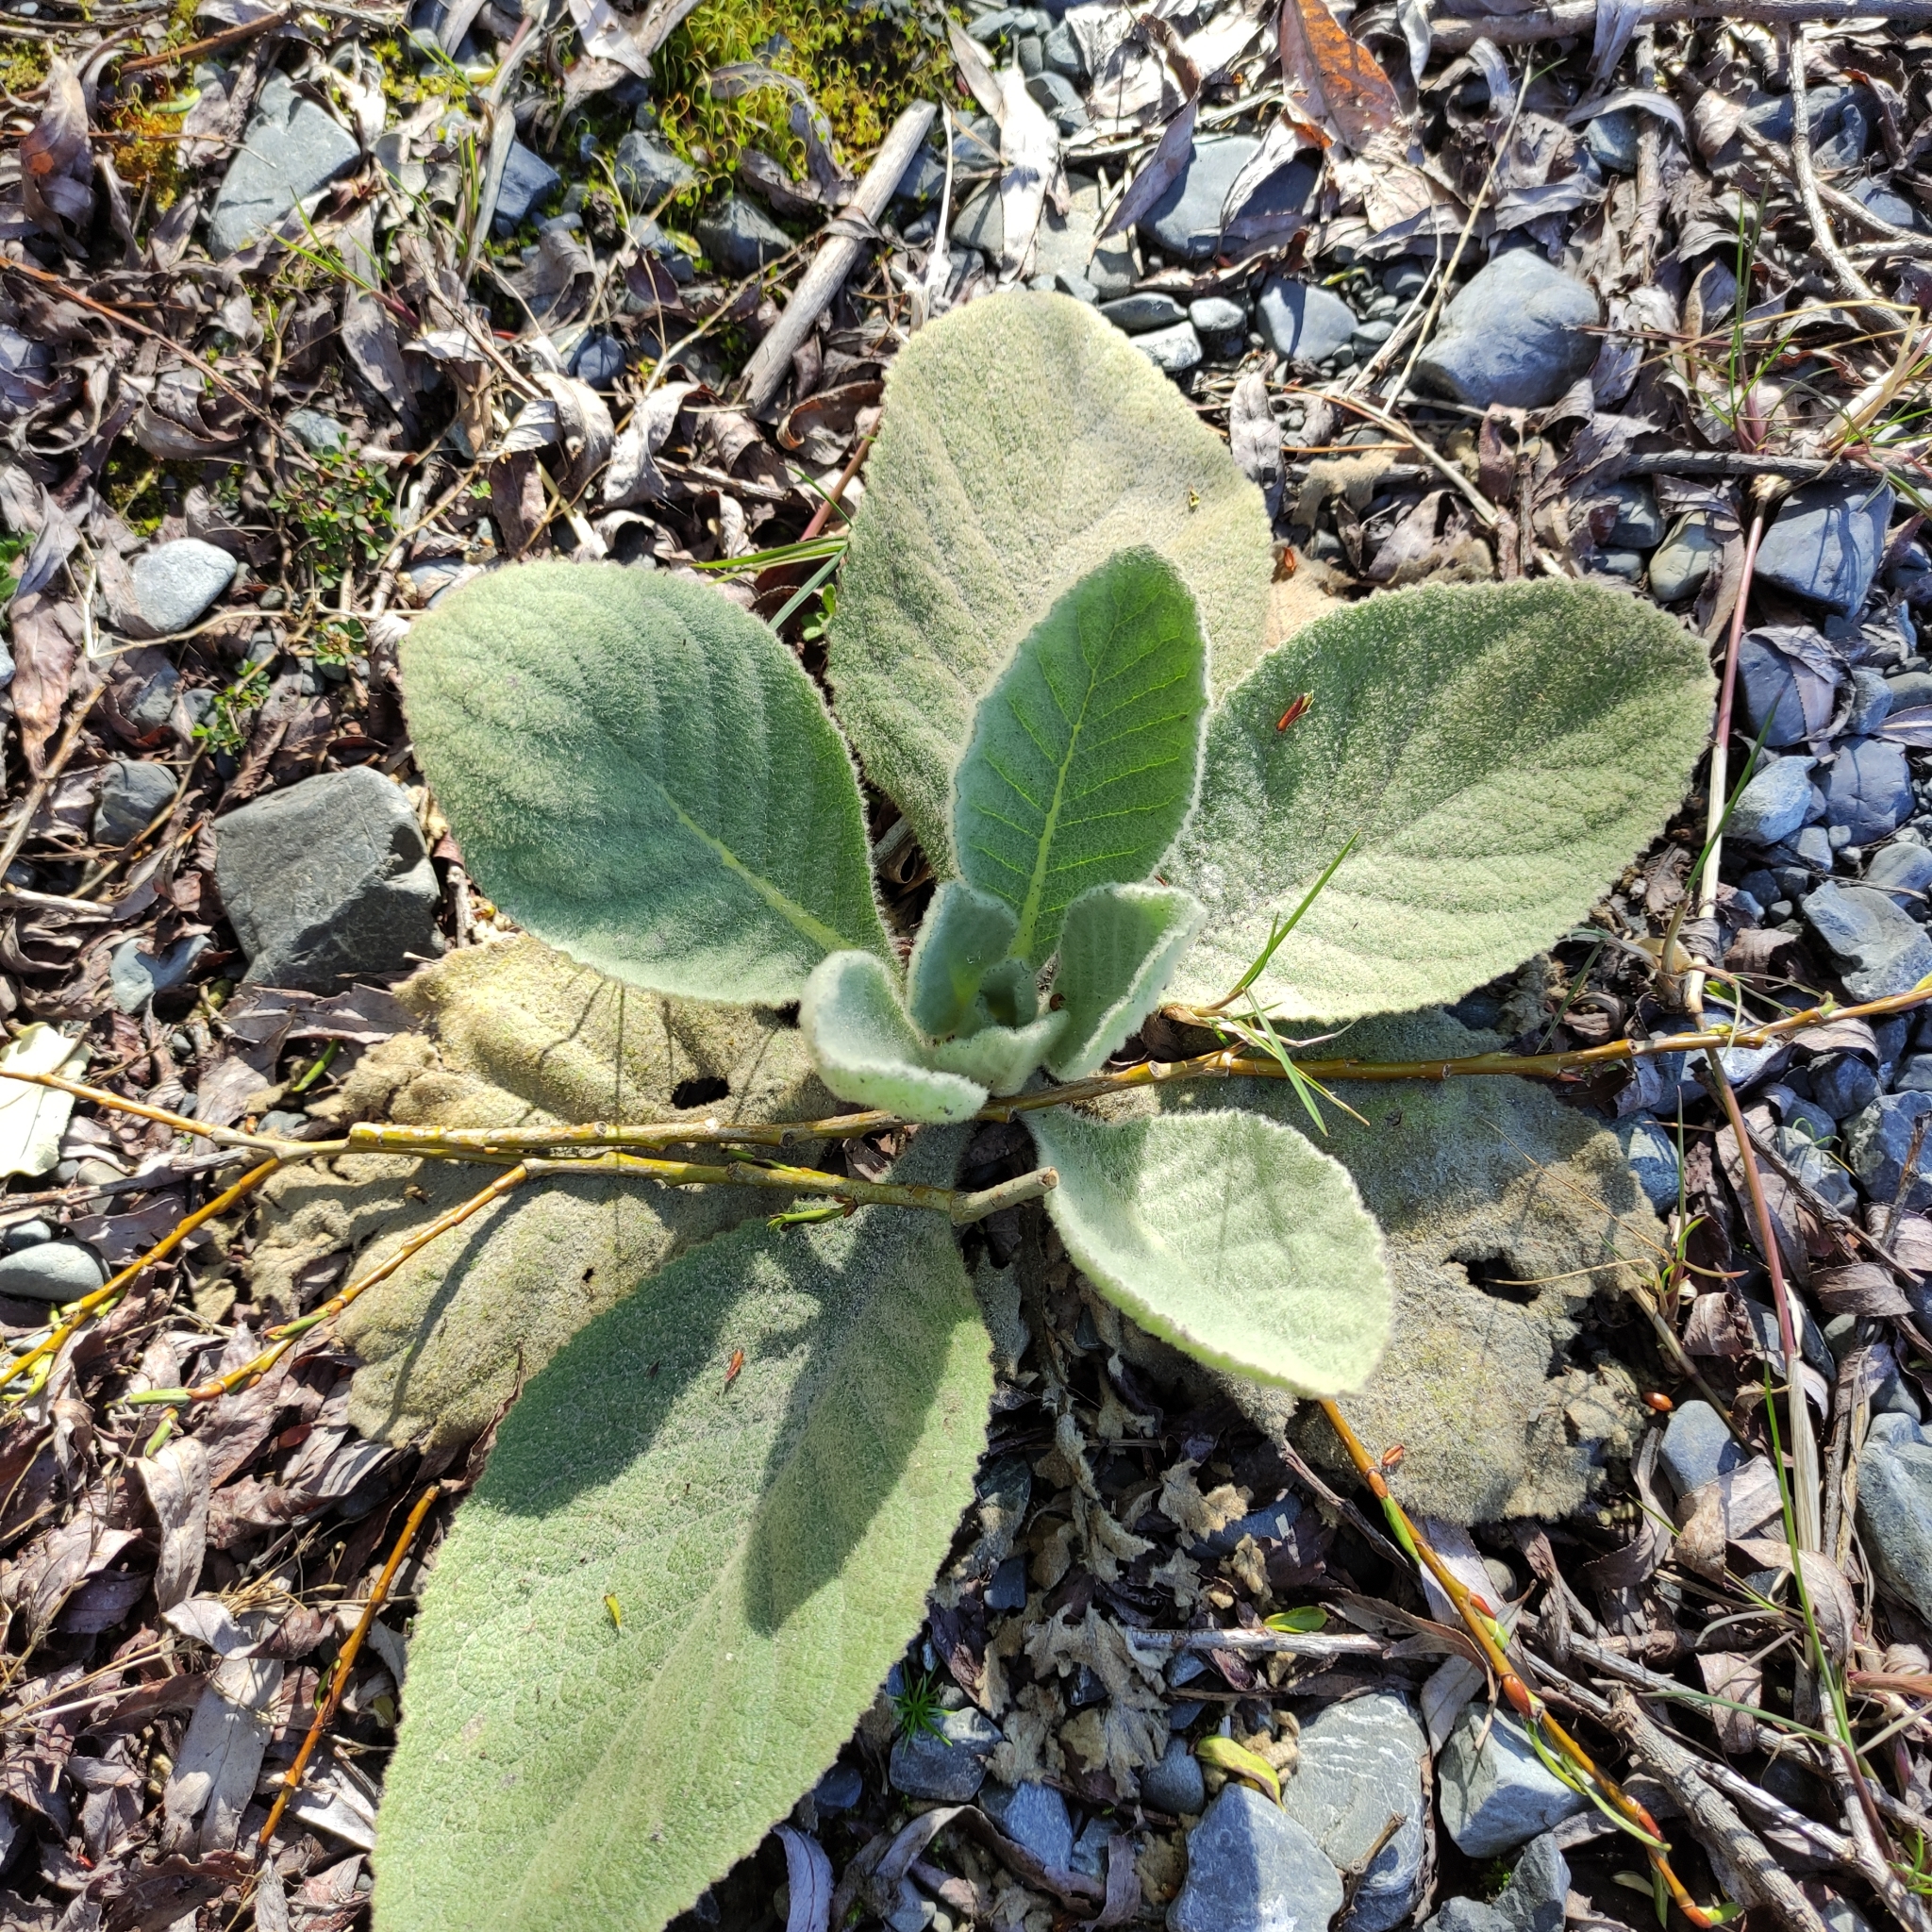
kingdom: Plantae
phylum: Tracheophyta
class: Magnoliopsida
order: Lamiales
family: Scrophulariaceae
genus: Verbascum
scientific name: Verbascum thapsus
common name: Common mullein
